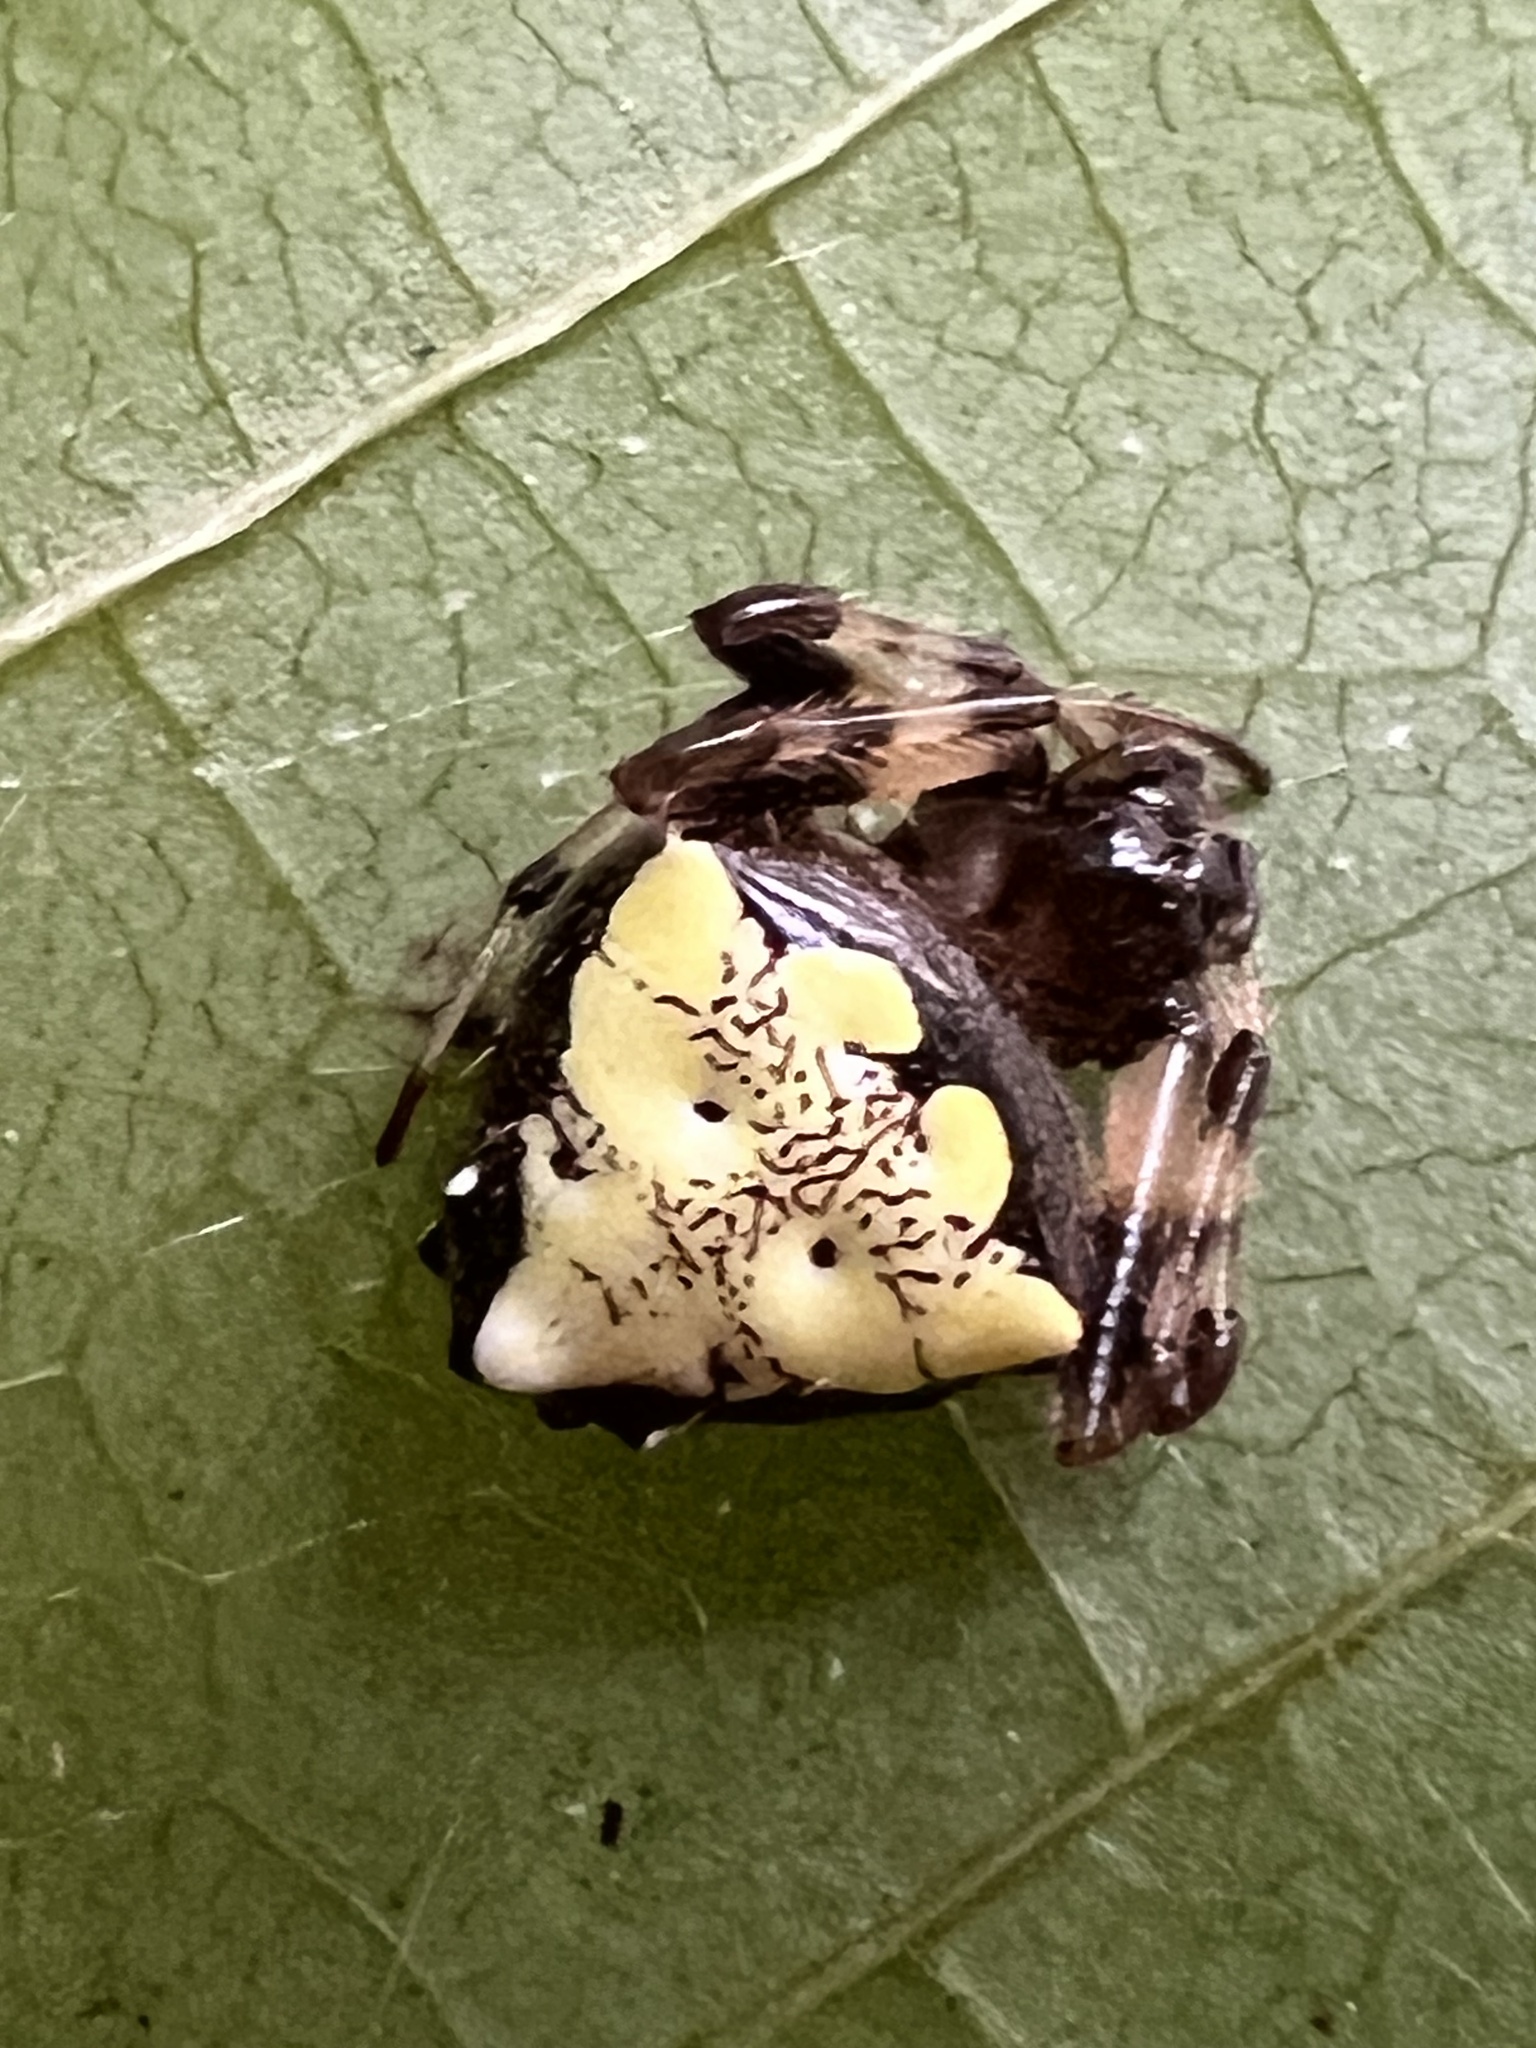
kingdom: Animalia
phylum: Arthropoda
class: Arachnida
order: Araneae
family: Araneidae
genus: Verrucosa
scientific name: Verrucosa arenata
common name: Orb weavers
